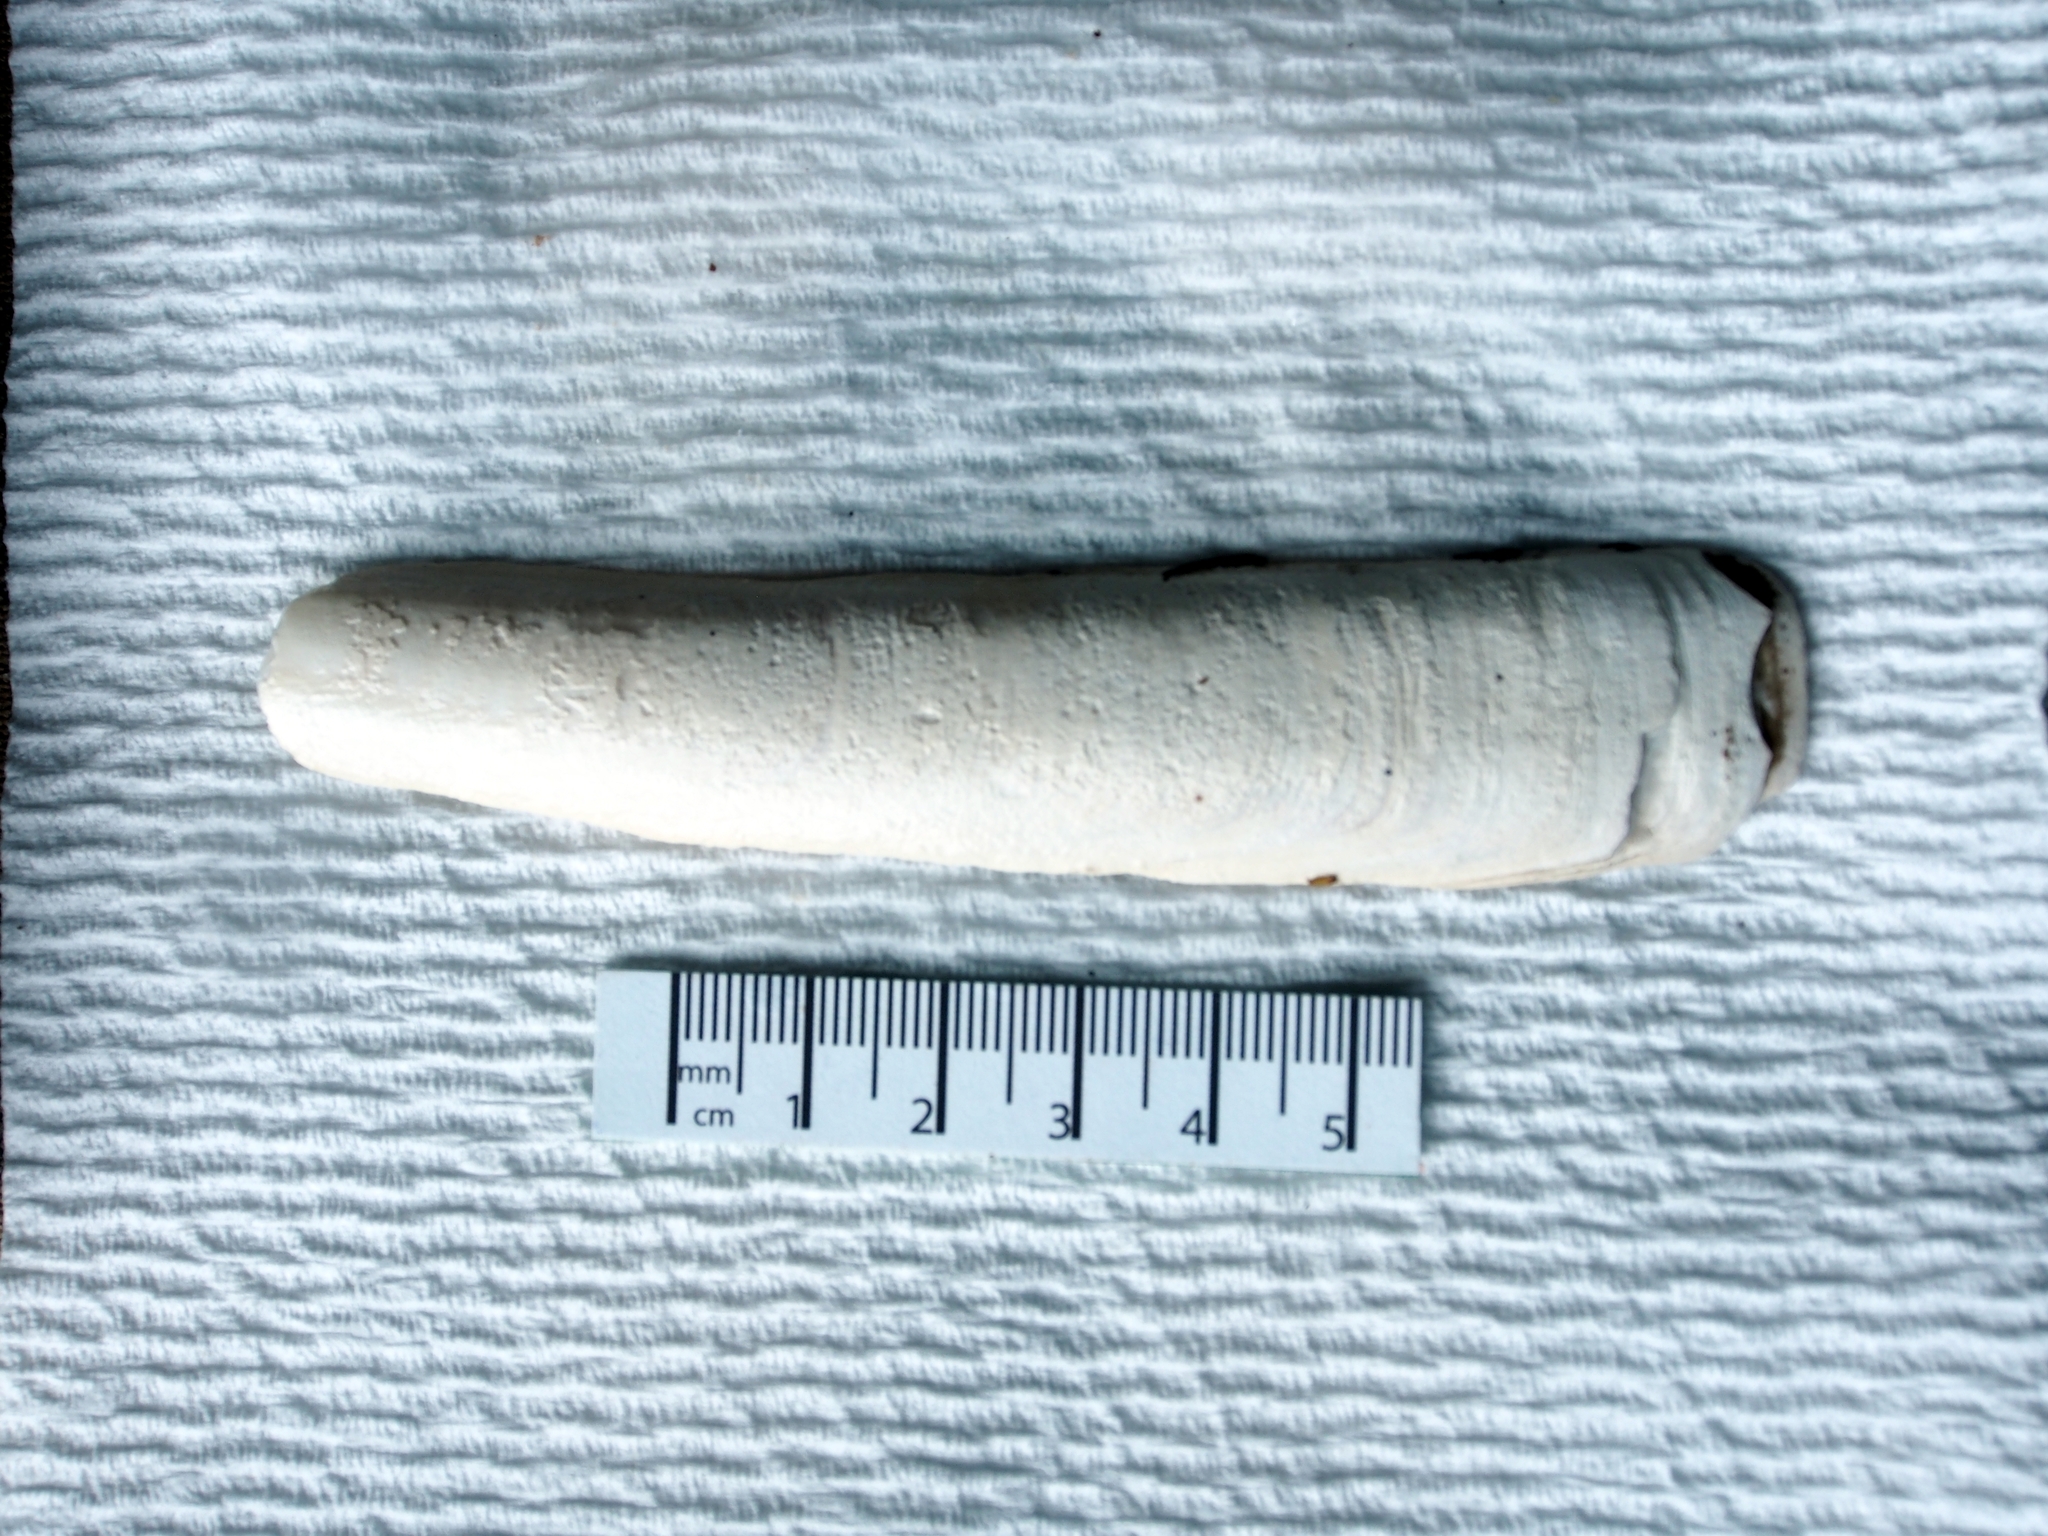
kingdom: Animalia
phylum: Mollusca
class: Bivalvia
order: Adapedonta
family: Pharidae
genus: Ensis
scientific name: Ensis leei
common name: American jack knife clam
